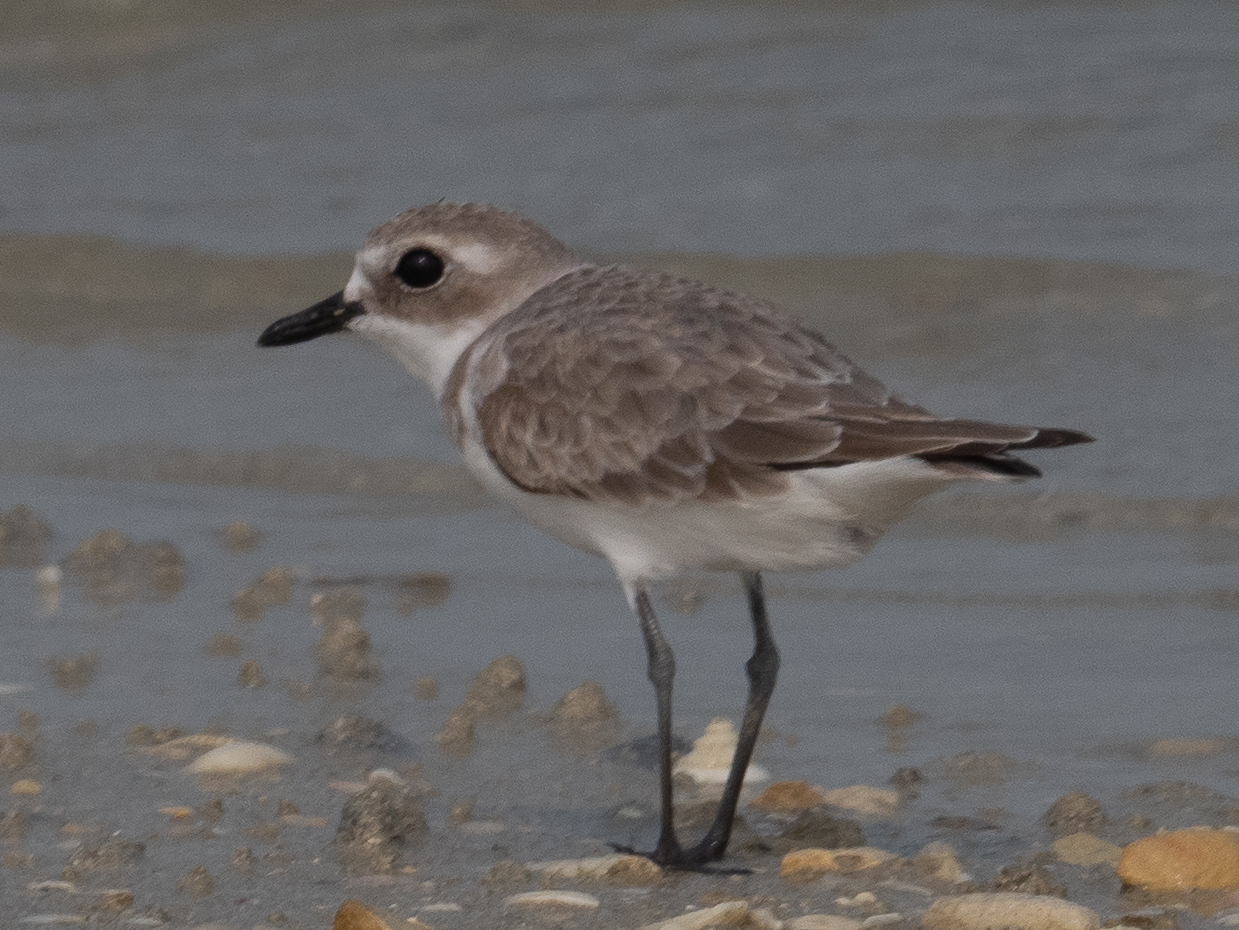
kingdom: Animalia
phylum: Chordata
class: Aves
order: Charadriiformes
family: Charadriidae
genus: Charadrius
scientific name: Charadrius leschenaultii
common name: Greater sand plover
